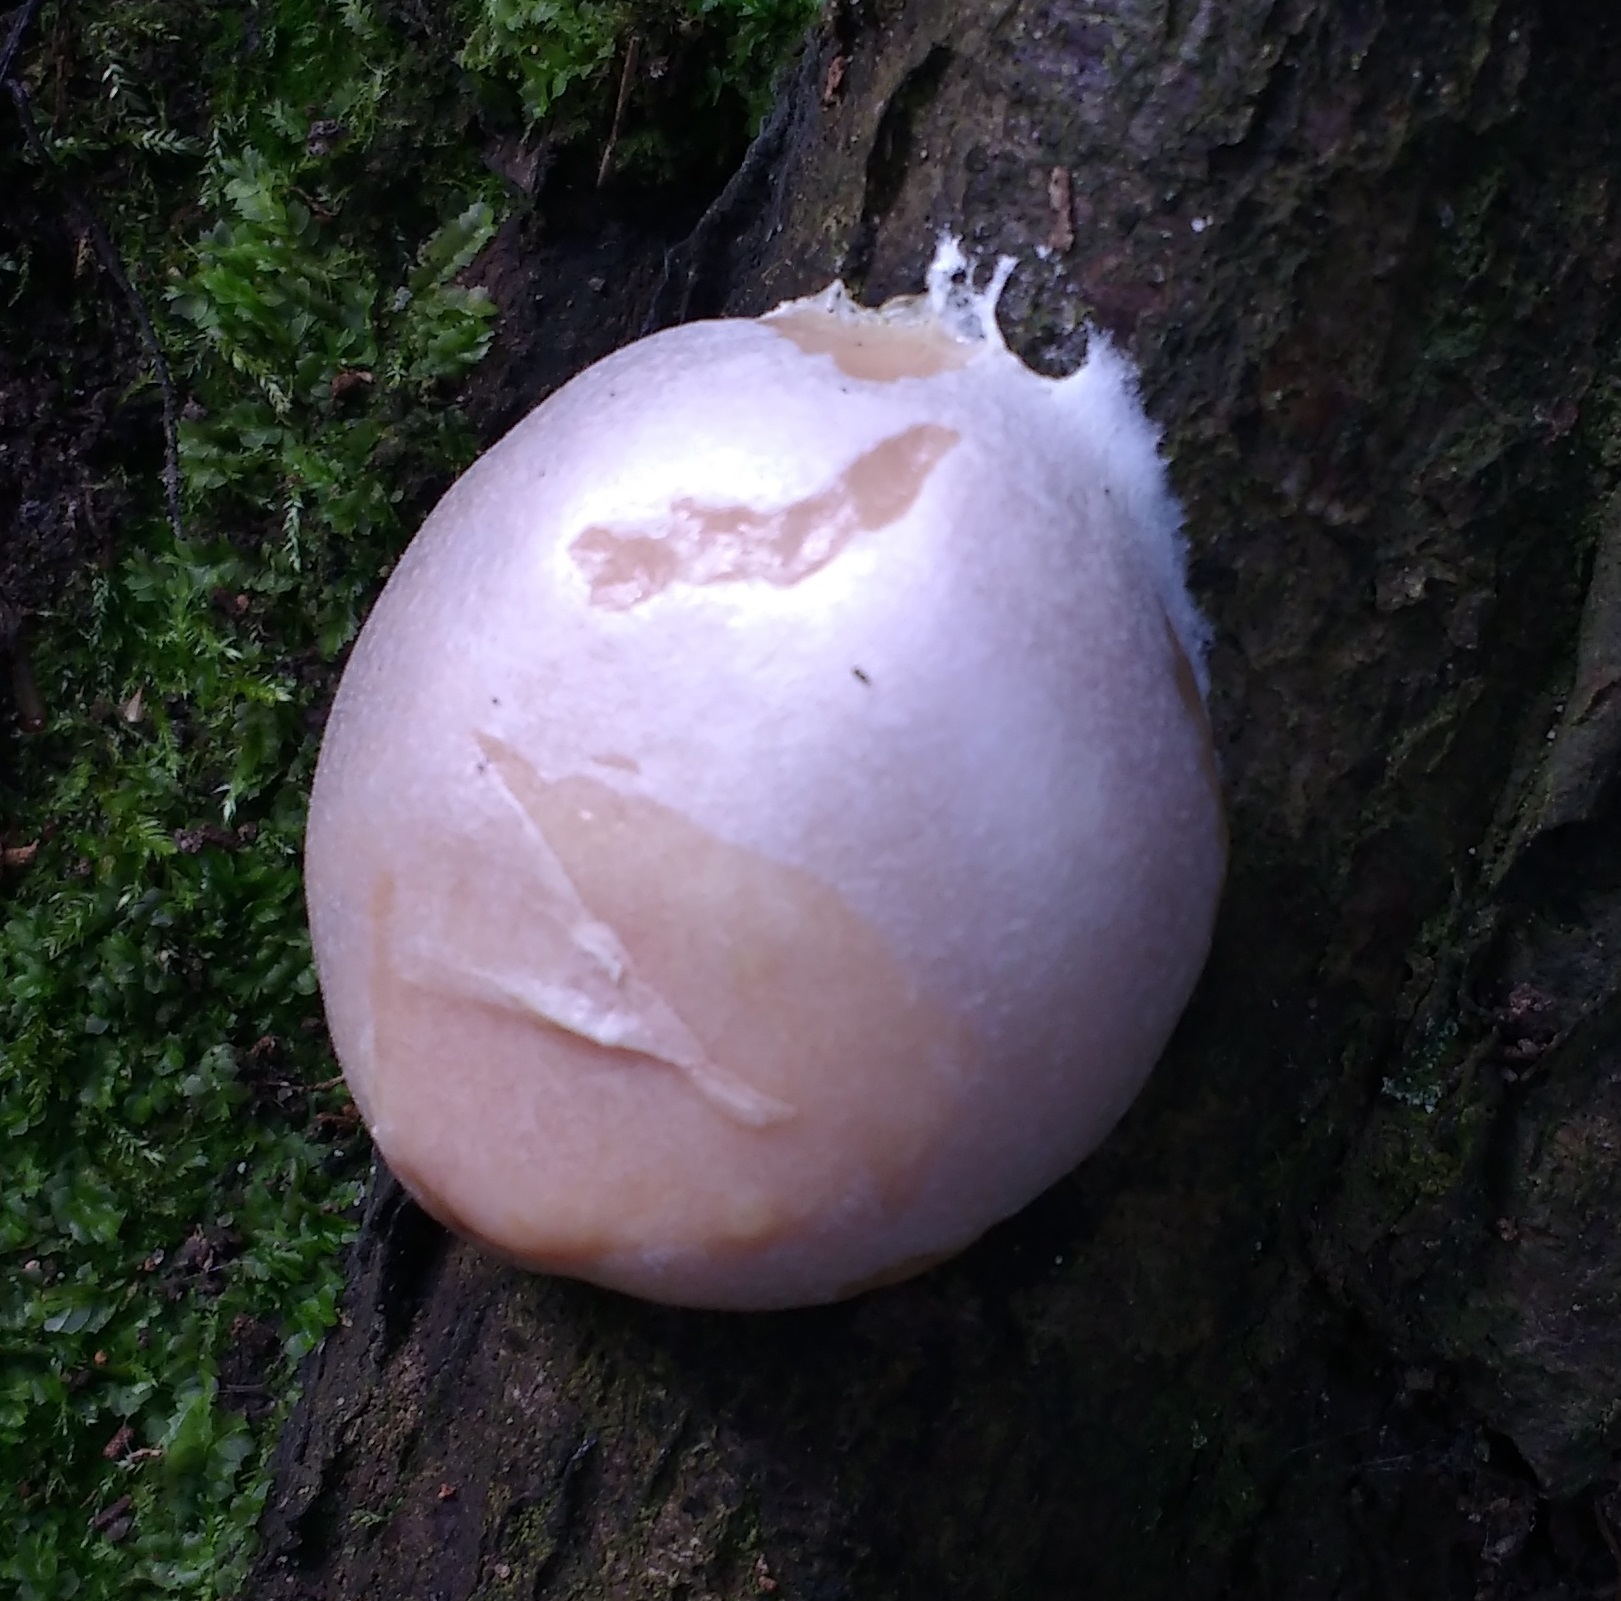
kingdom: Protozoa
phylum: Mycetozoa
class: Myxomycetes
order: Cribrariales
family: Tubiferaceae
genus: Reticularia
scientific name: Reticularia lycoperdon
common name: False puffball
